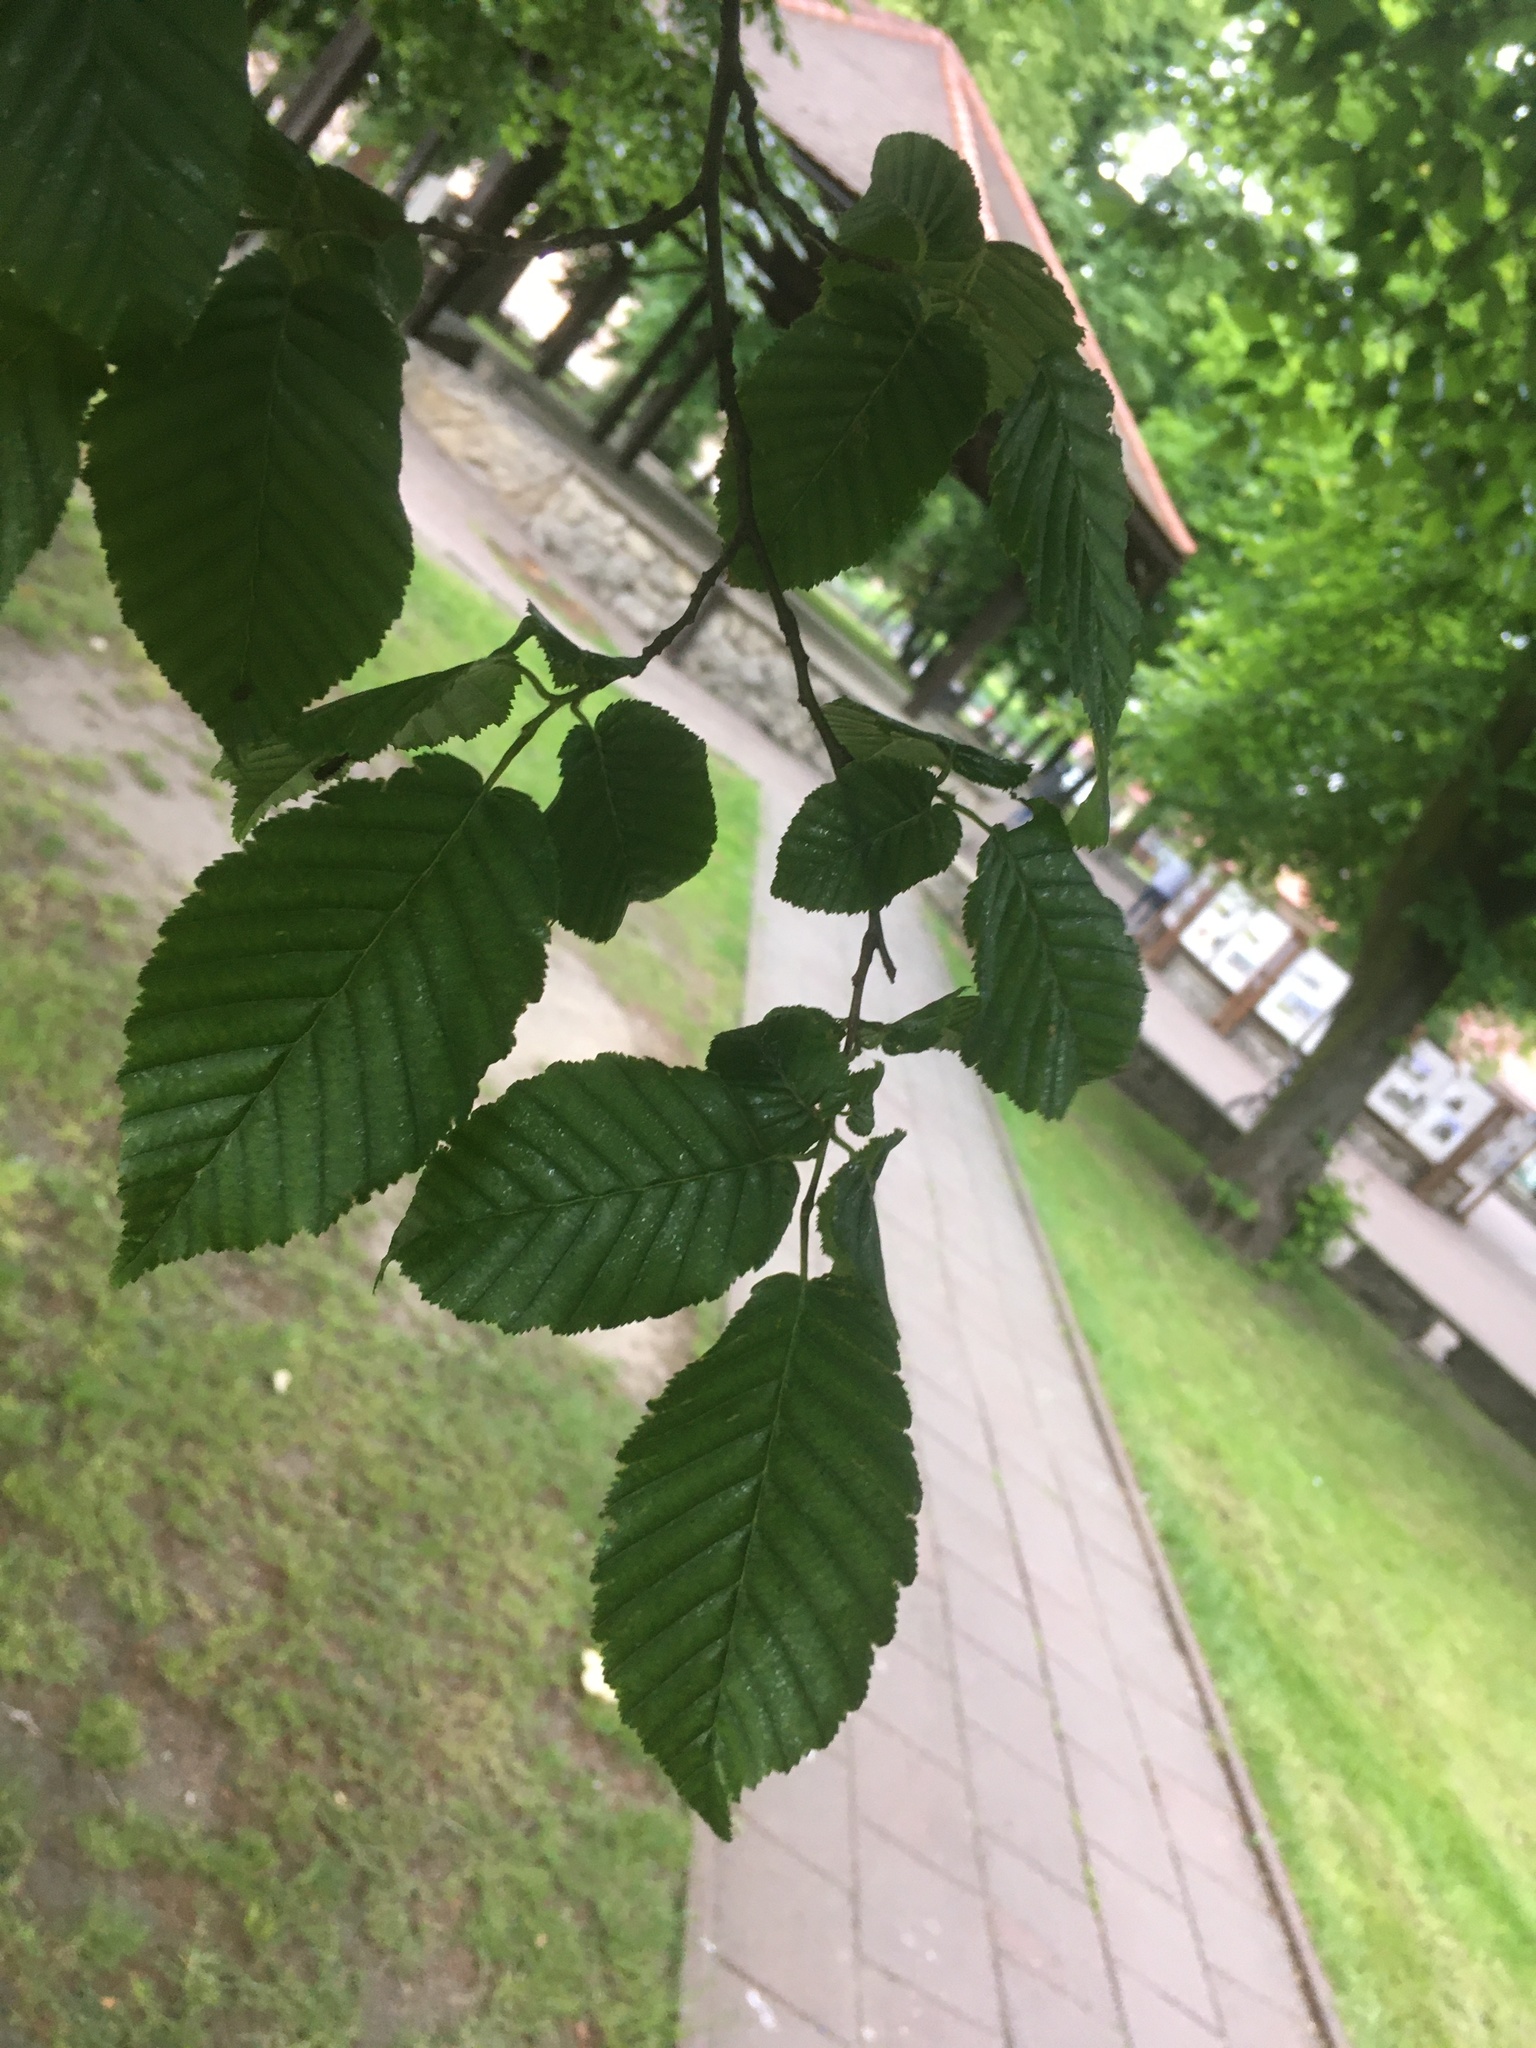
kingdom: Plantae
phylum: Tracheophyta
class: Magnoliopsida
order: Fagales
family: Betulaceae
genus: Carpinus
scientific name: Carpinus betulus
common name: Hornbeam
